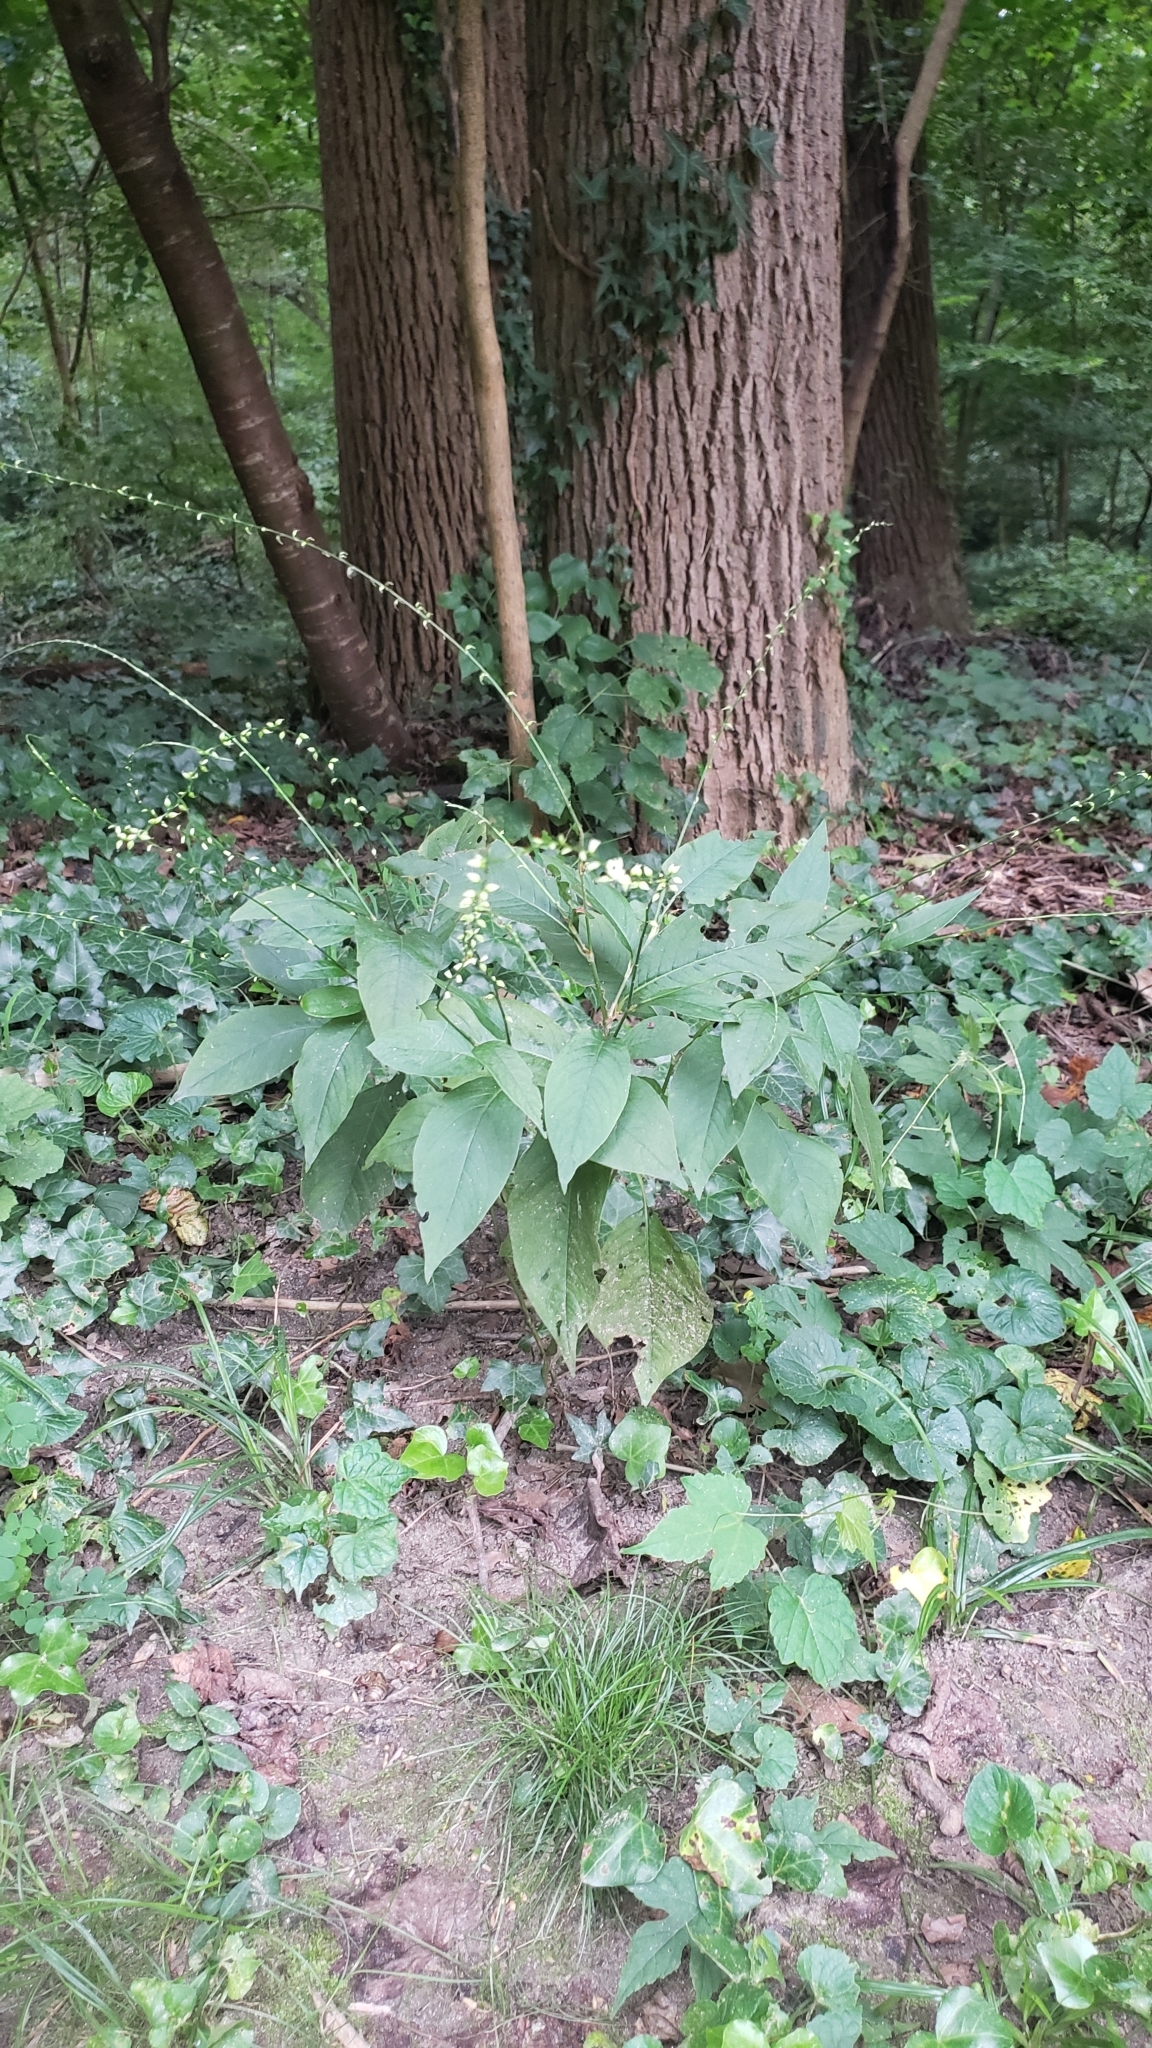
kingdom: Plantae
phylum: Tracheophyta
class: Magnoliopsida
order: Caryophyllales
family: Polygonaceae
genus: Persicaria
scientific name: Persicaria virginiana
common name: Jumpseed
